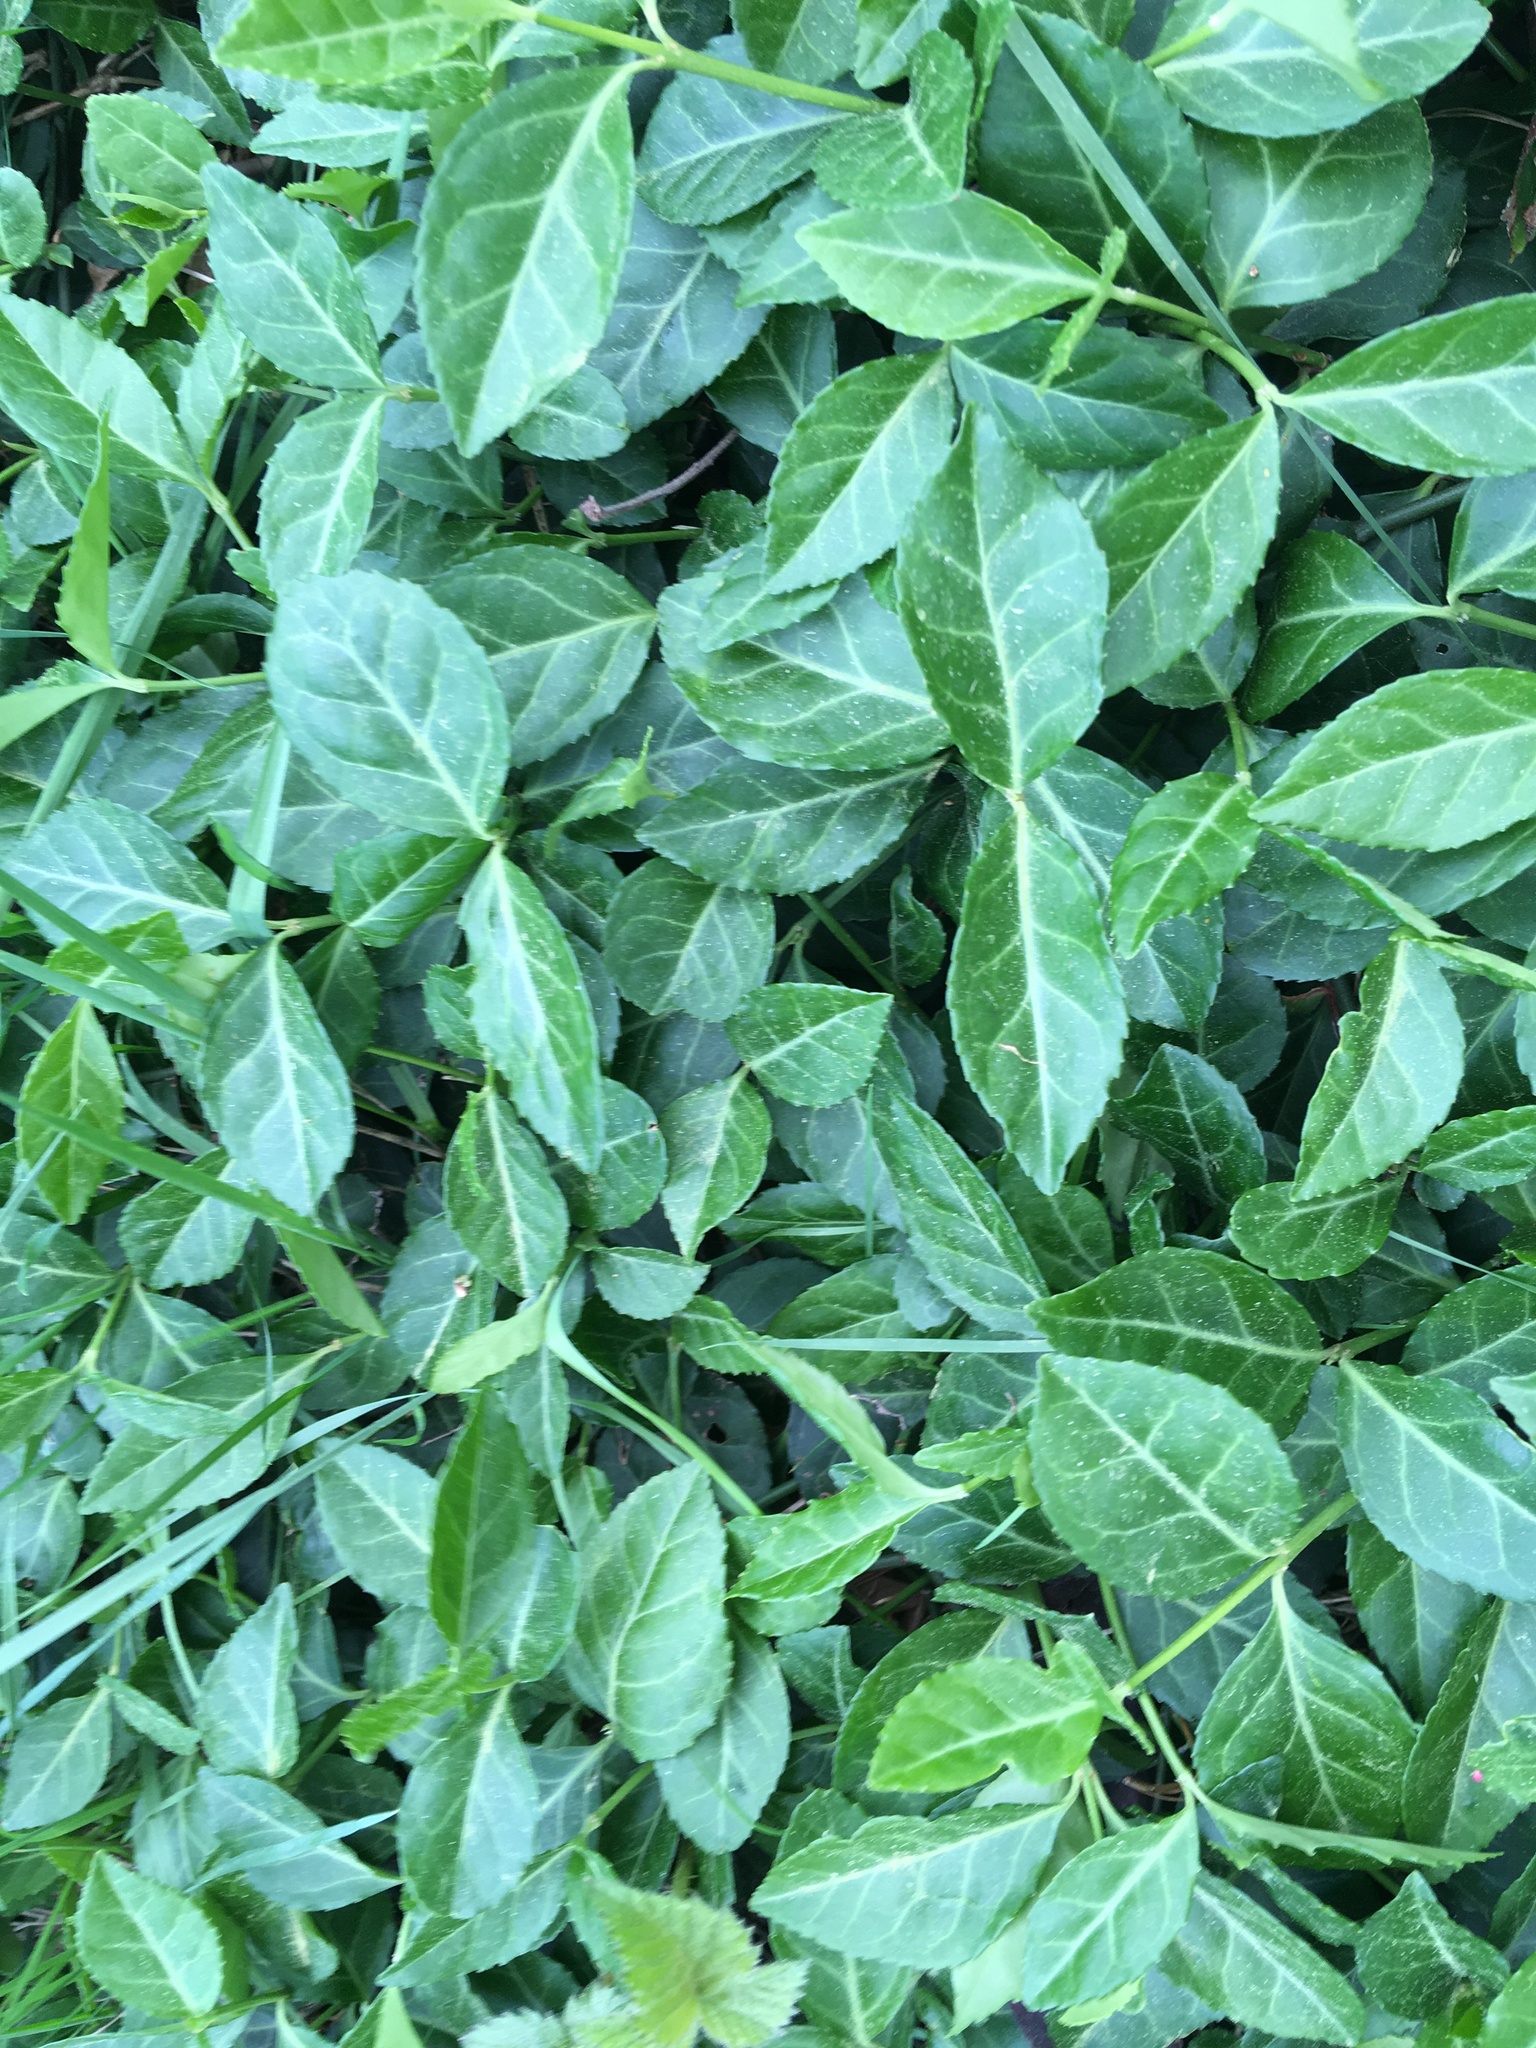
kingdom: Plantae
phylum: Tracheophyta
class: Magnoliopsida
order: Celastrales
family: Celastraceae
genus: Euonymus
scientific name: Euonymus fortunei
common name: Climbing euonymus
